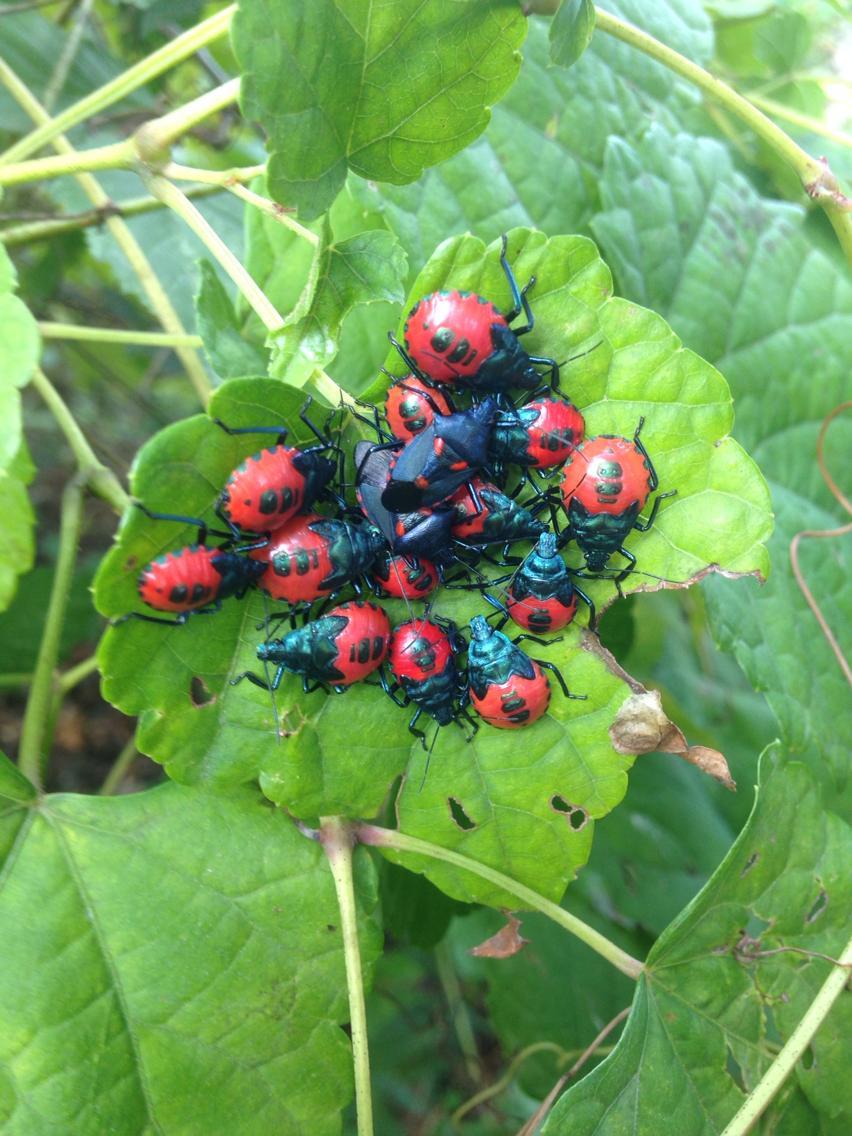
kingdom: Animalia
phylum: Arthropoda
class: Insecta
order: Hemiptera
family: Pentatomidae
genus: Euthyrhynchus
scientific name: Euthyrhynchus floridanus
